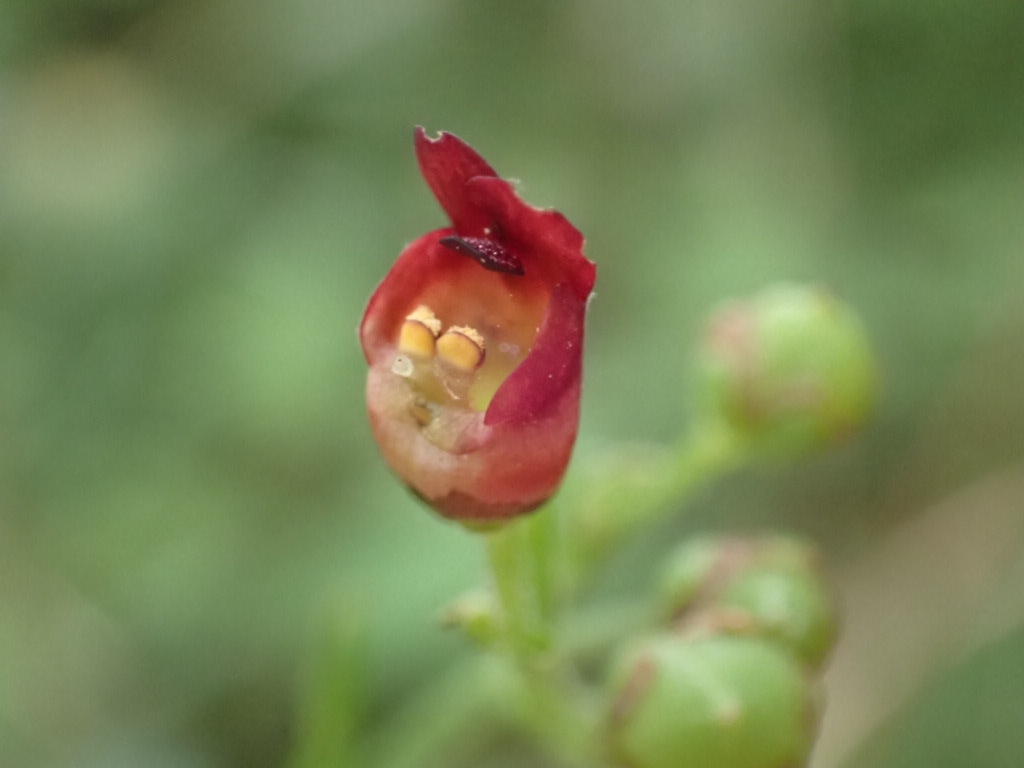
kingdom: Plantae
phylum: Tracheophyta
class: Magnoliopsida
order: Lamiales
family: Scrophulariaceae
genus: Scrophularia
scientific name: Scrophularia auriculata
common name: Water betony
